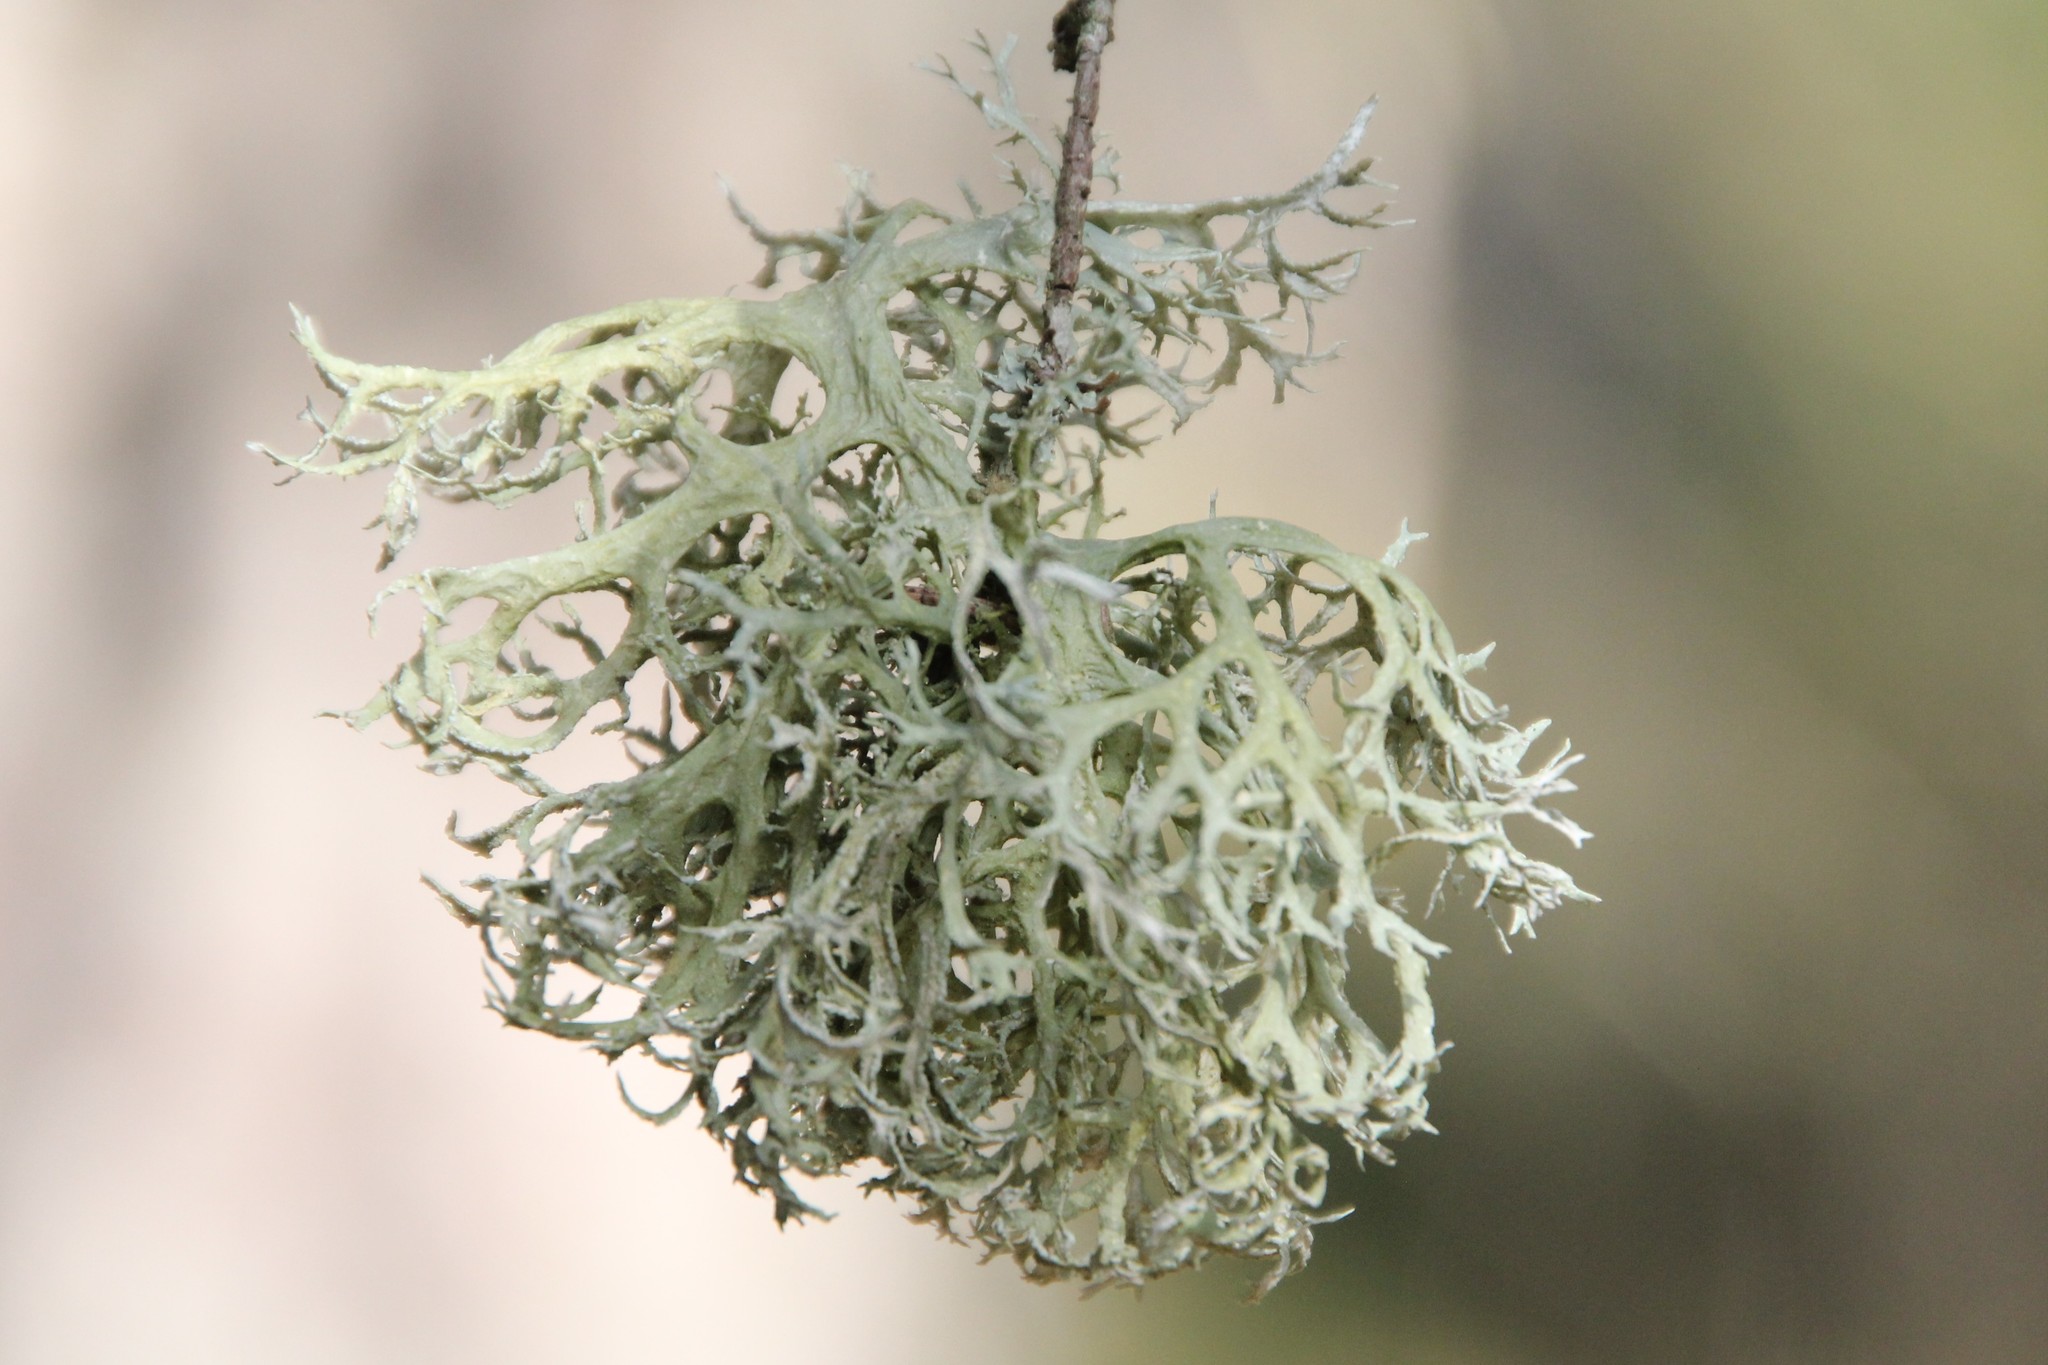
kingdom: Fungi
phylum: Ascomycota
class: Lecanoromycetes
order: Lecanorales
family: Parmeliaceae
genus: Evernia
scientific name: Evernia prunastri
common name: Oak moss
